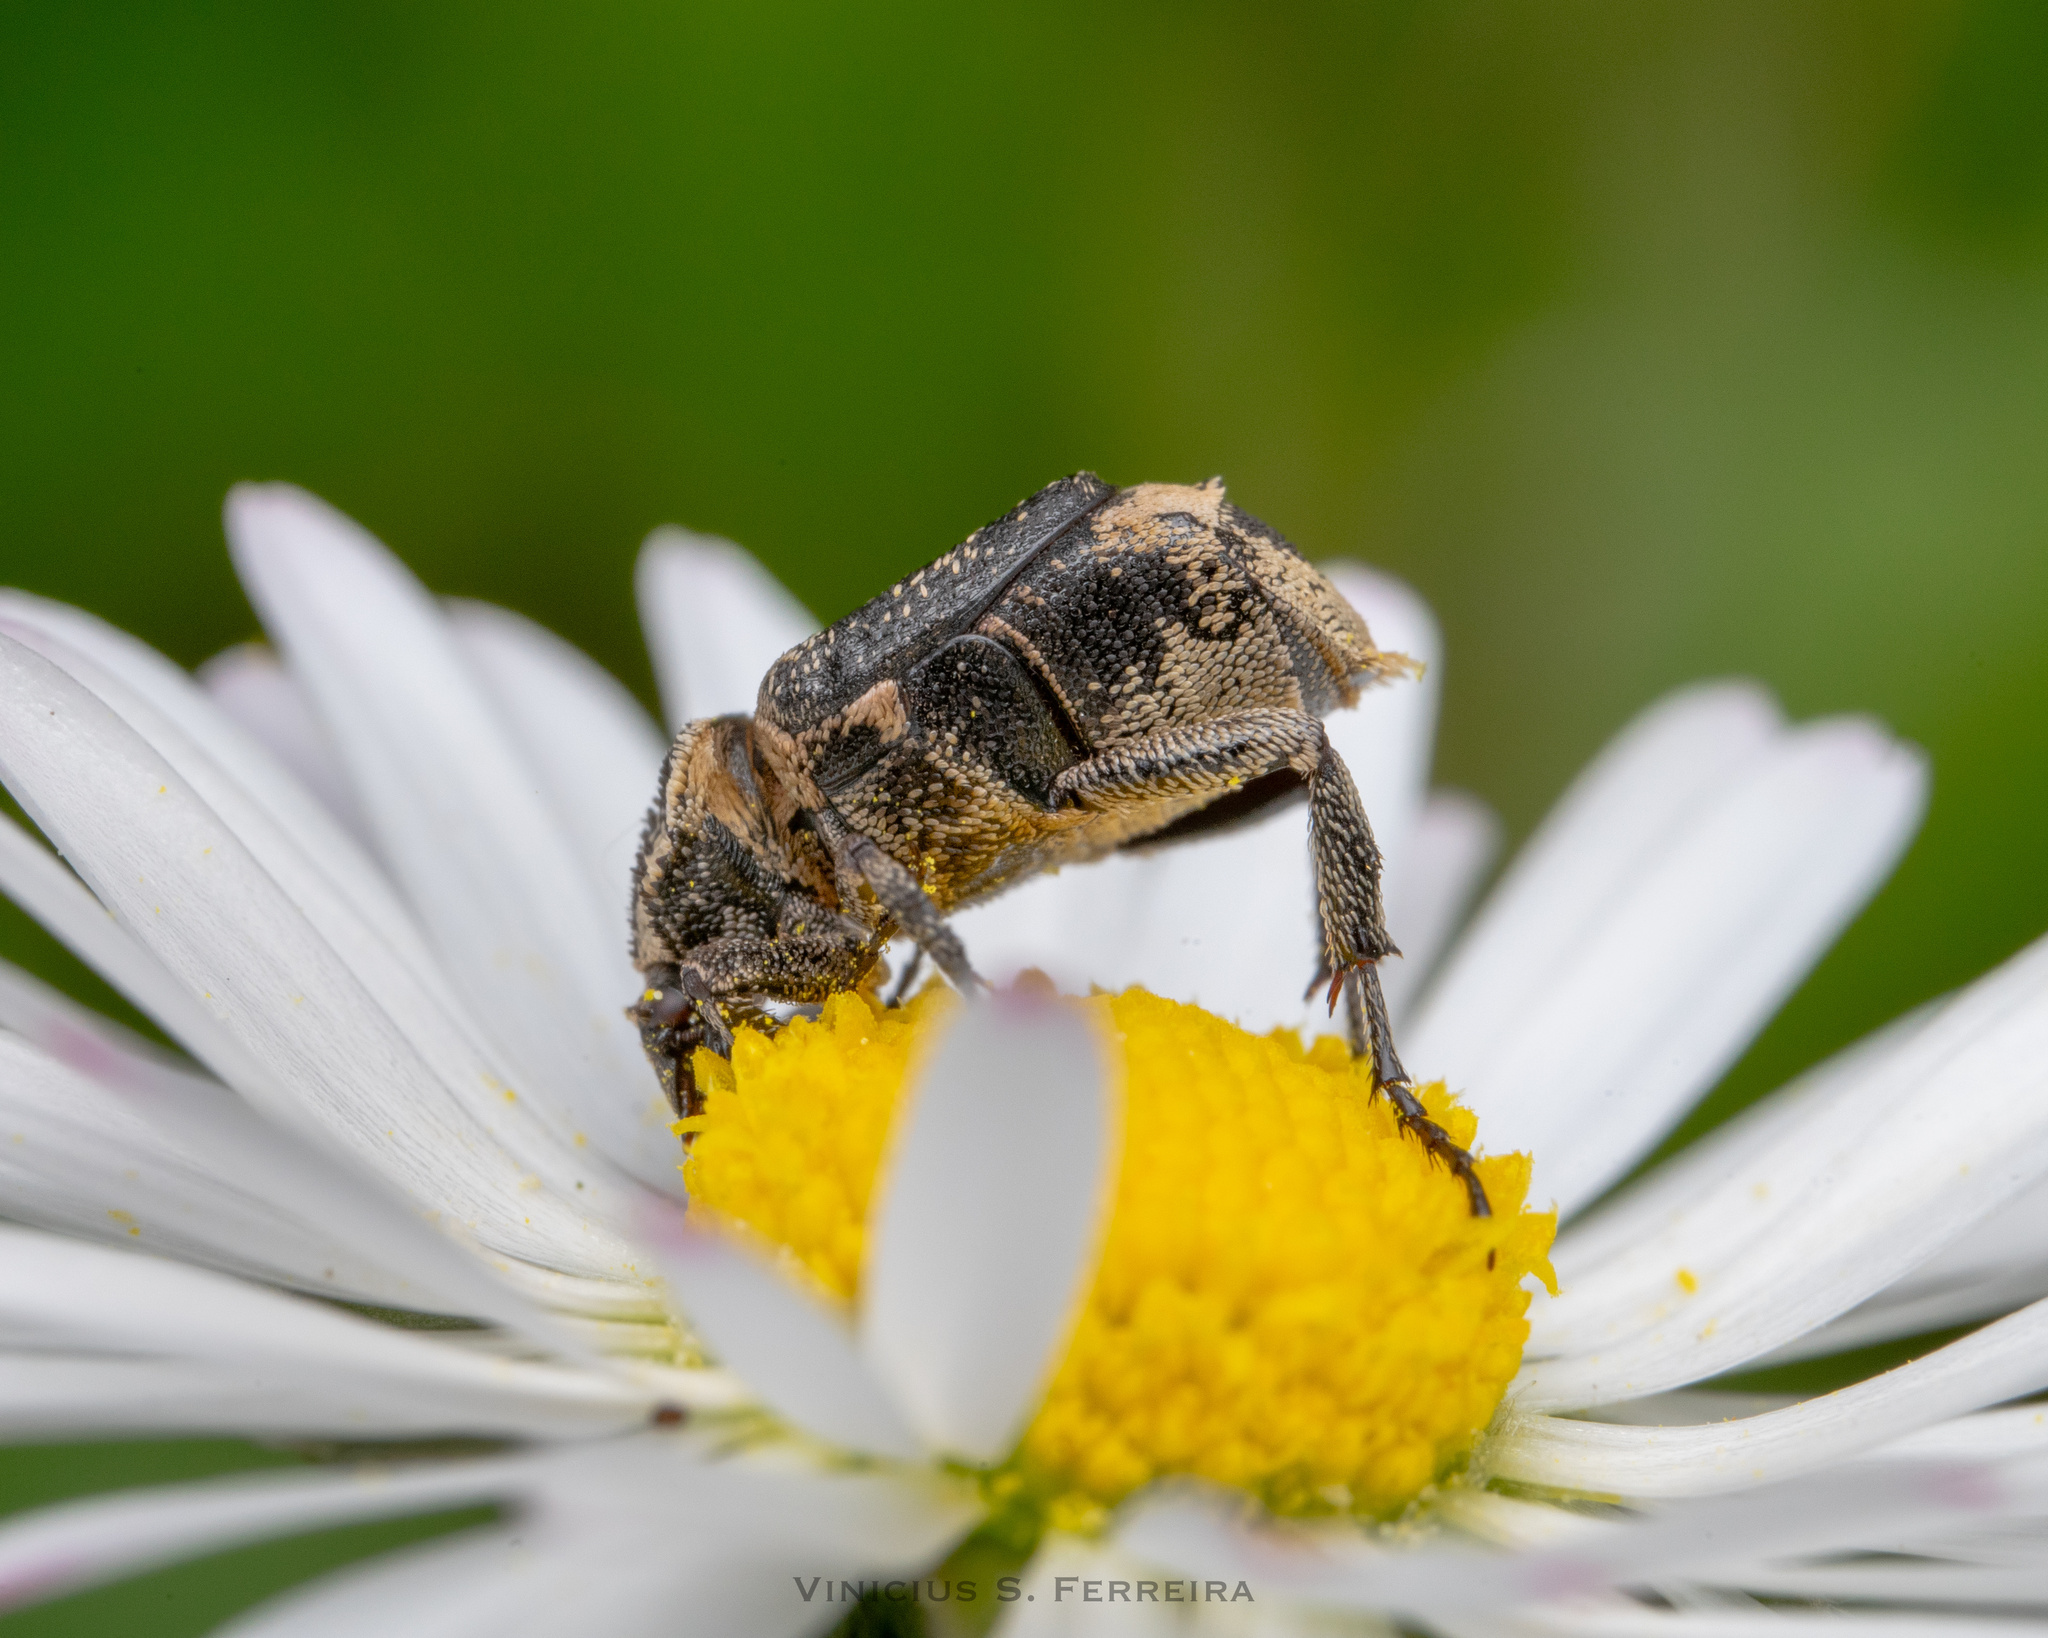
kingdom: Animalia
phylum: Arthropoda
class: Insecta
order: Coleoptera
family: Scarabaeidae
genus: Valgus
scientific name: Valgus hemipterus
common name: Bug flower chafer
